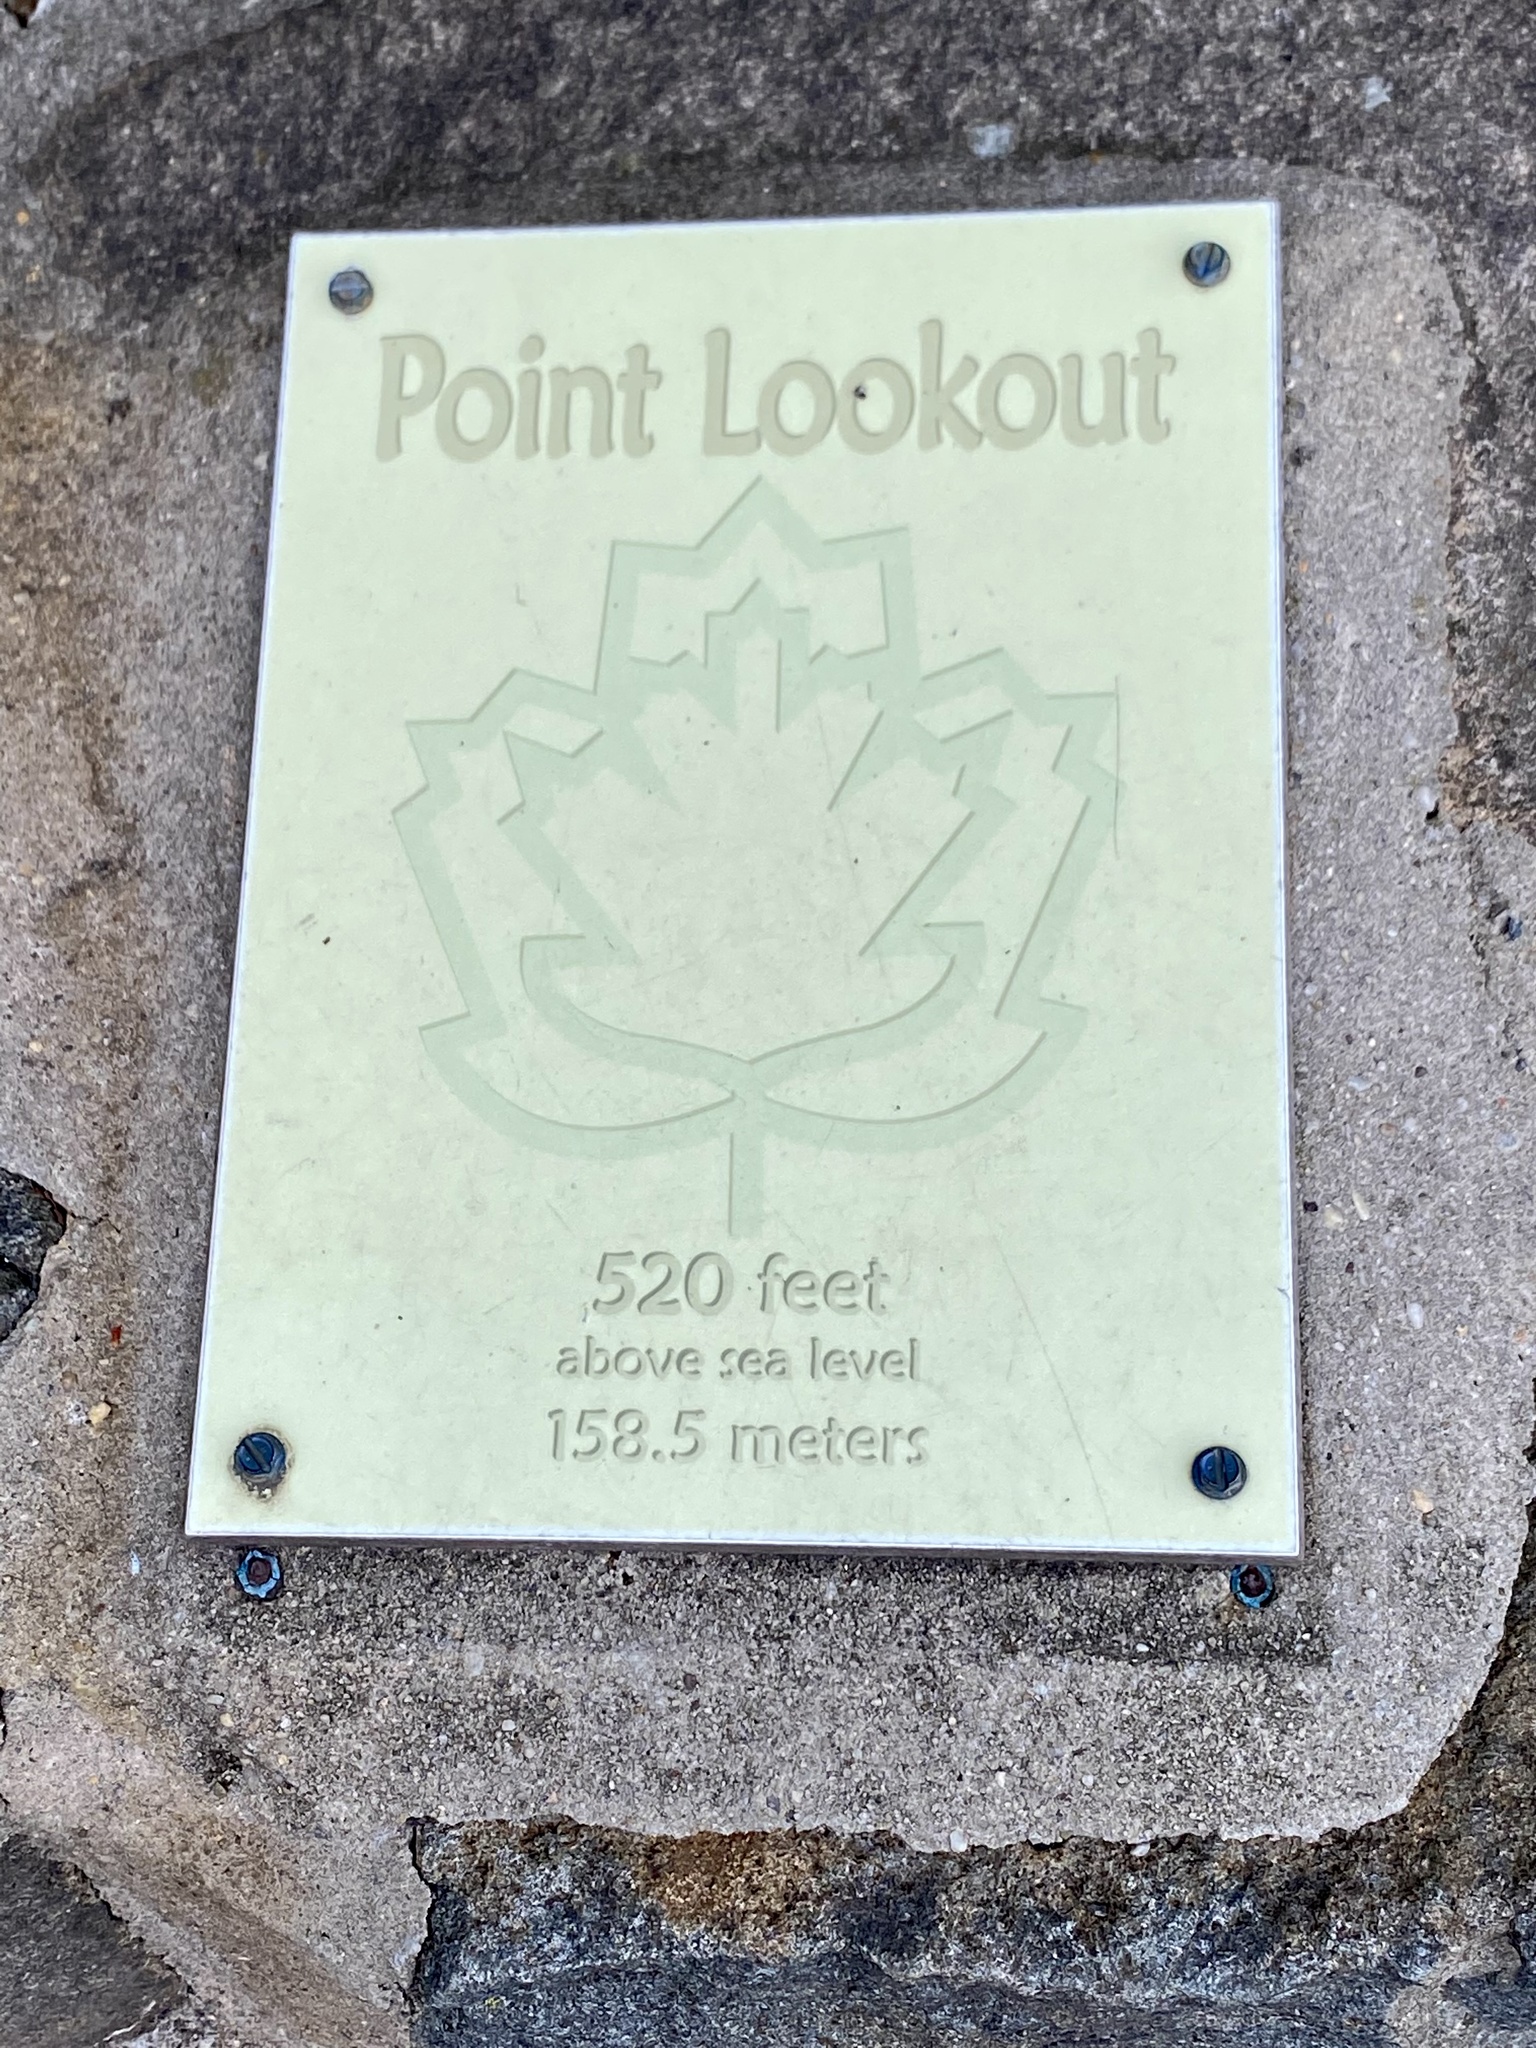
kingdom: Plantae
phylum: Tracheophyta
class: Magnoliopsida
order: Asterales
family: Asteraceae
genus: Achillea
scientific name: Achillea millefolium
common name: Yarrow
